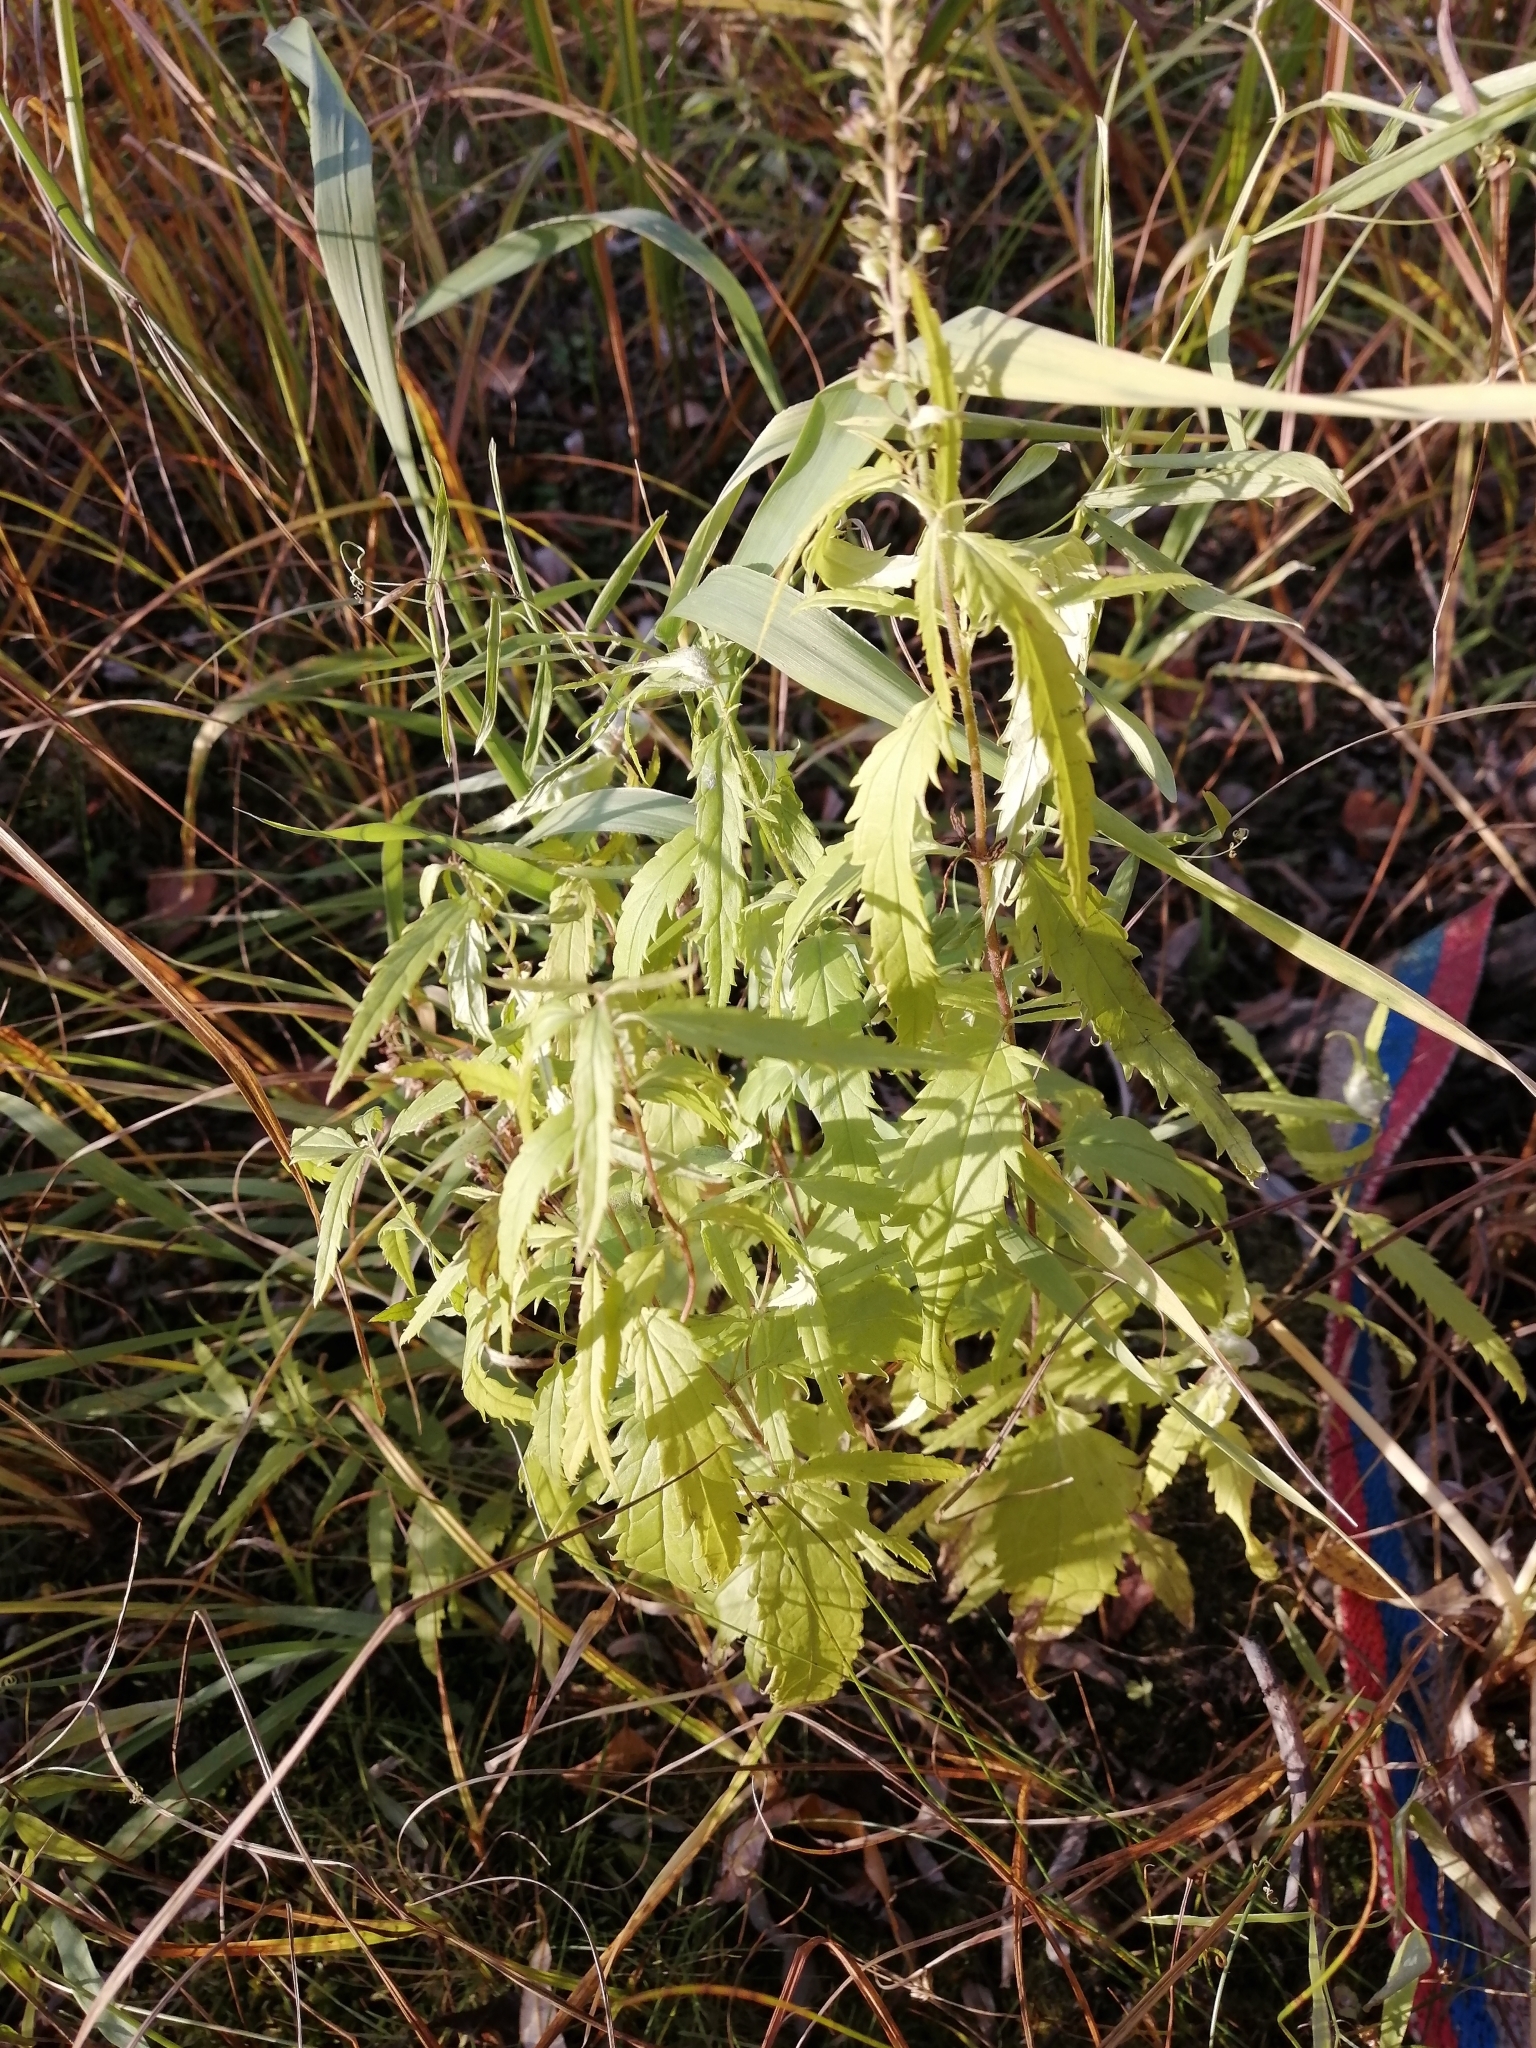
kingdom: Plantae
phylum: Tracheophyta
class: Magnoliopsida
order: Lamiales
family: Plantaginaceae
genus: Veronica
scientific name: Veronica longifolia
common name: Garden speedwell
